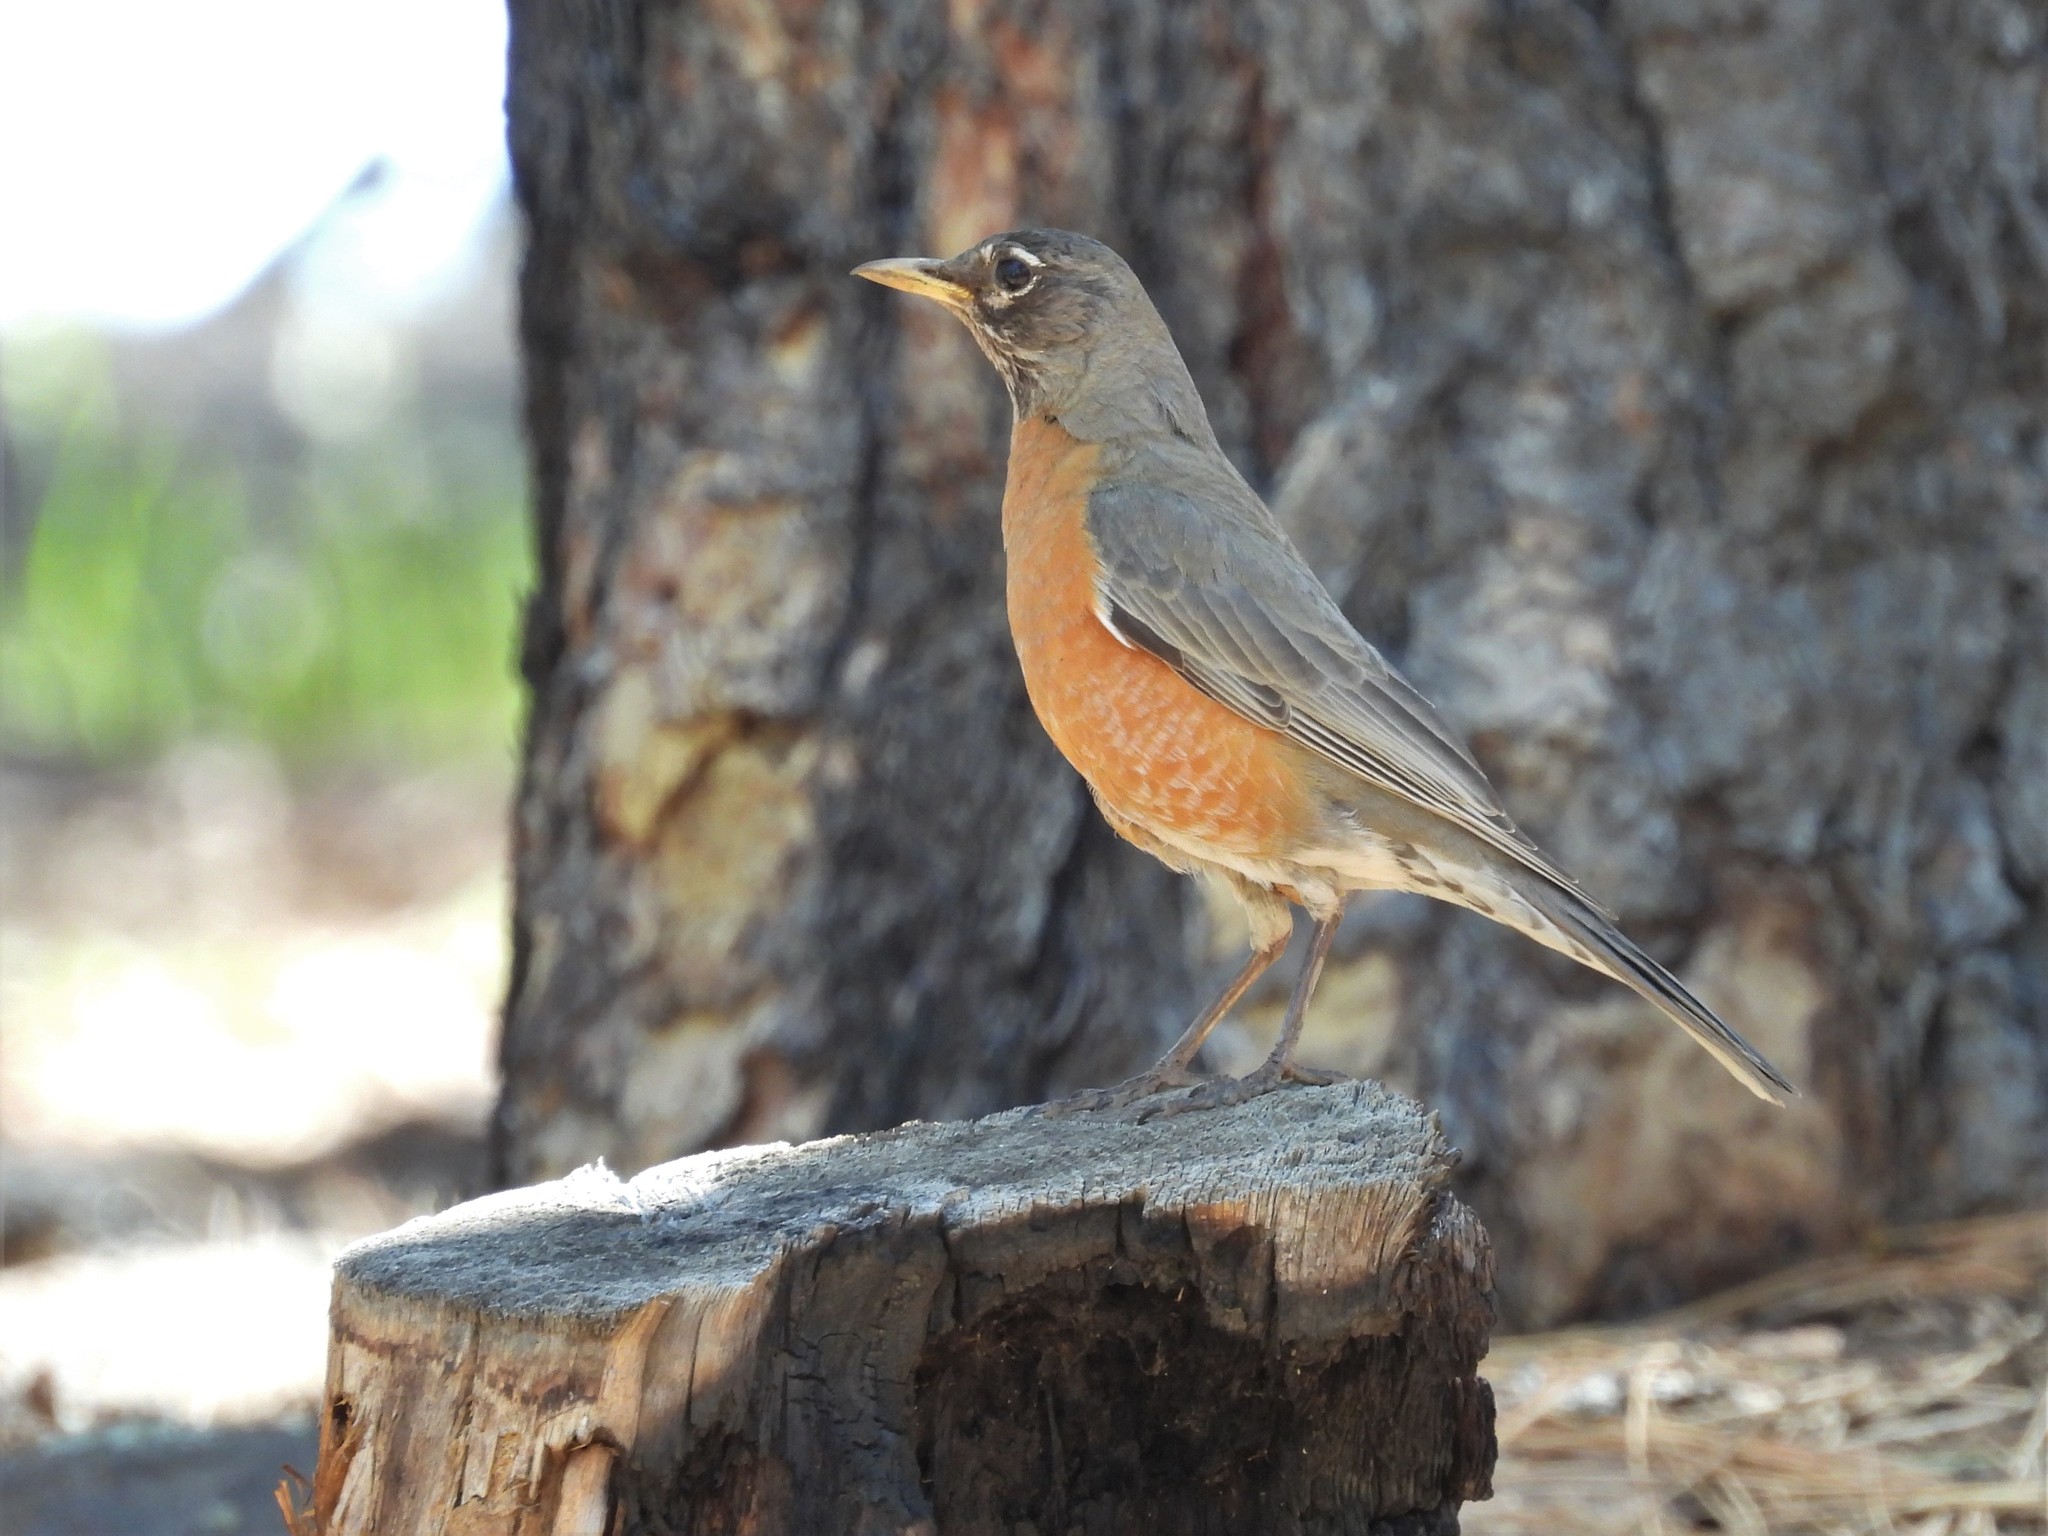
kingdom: Animalia
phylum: Chordata
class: Aves
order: Passeriformes
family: Turdidae
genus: Turdus
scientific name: Turdus migratorius
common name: American robin
